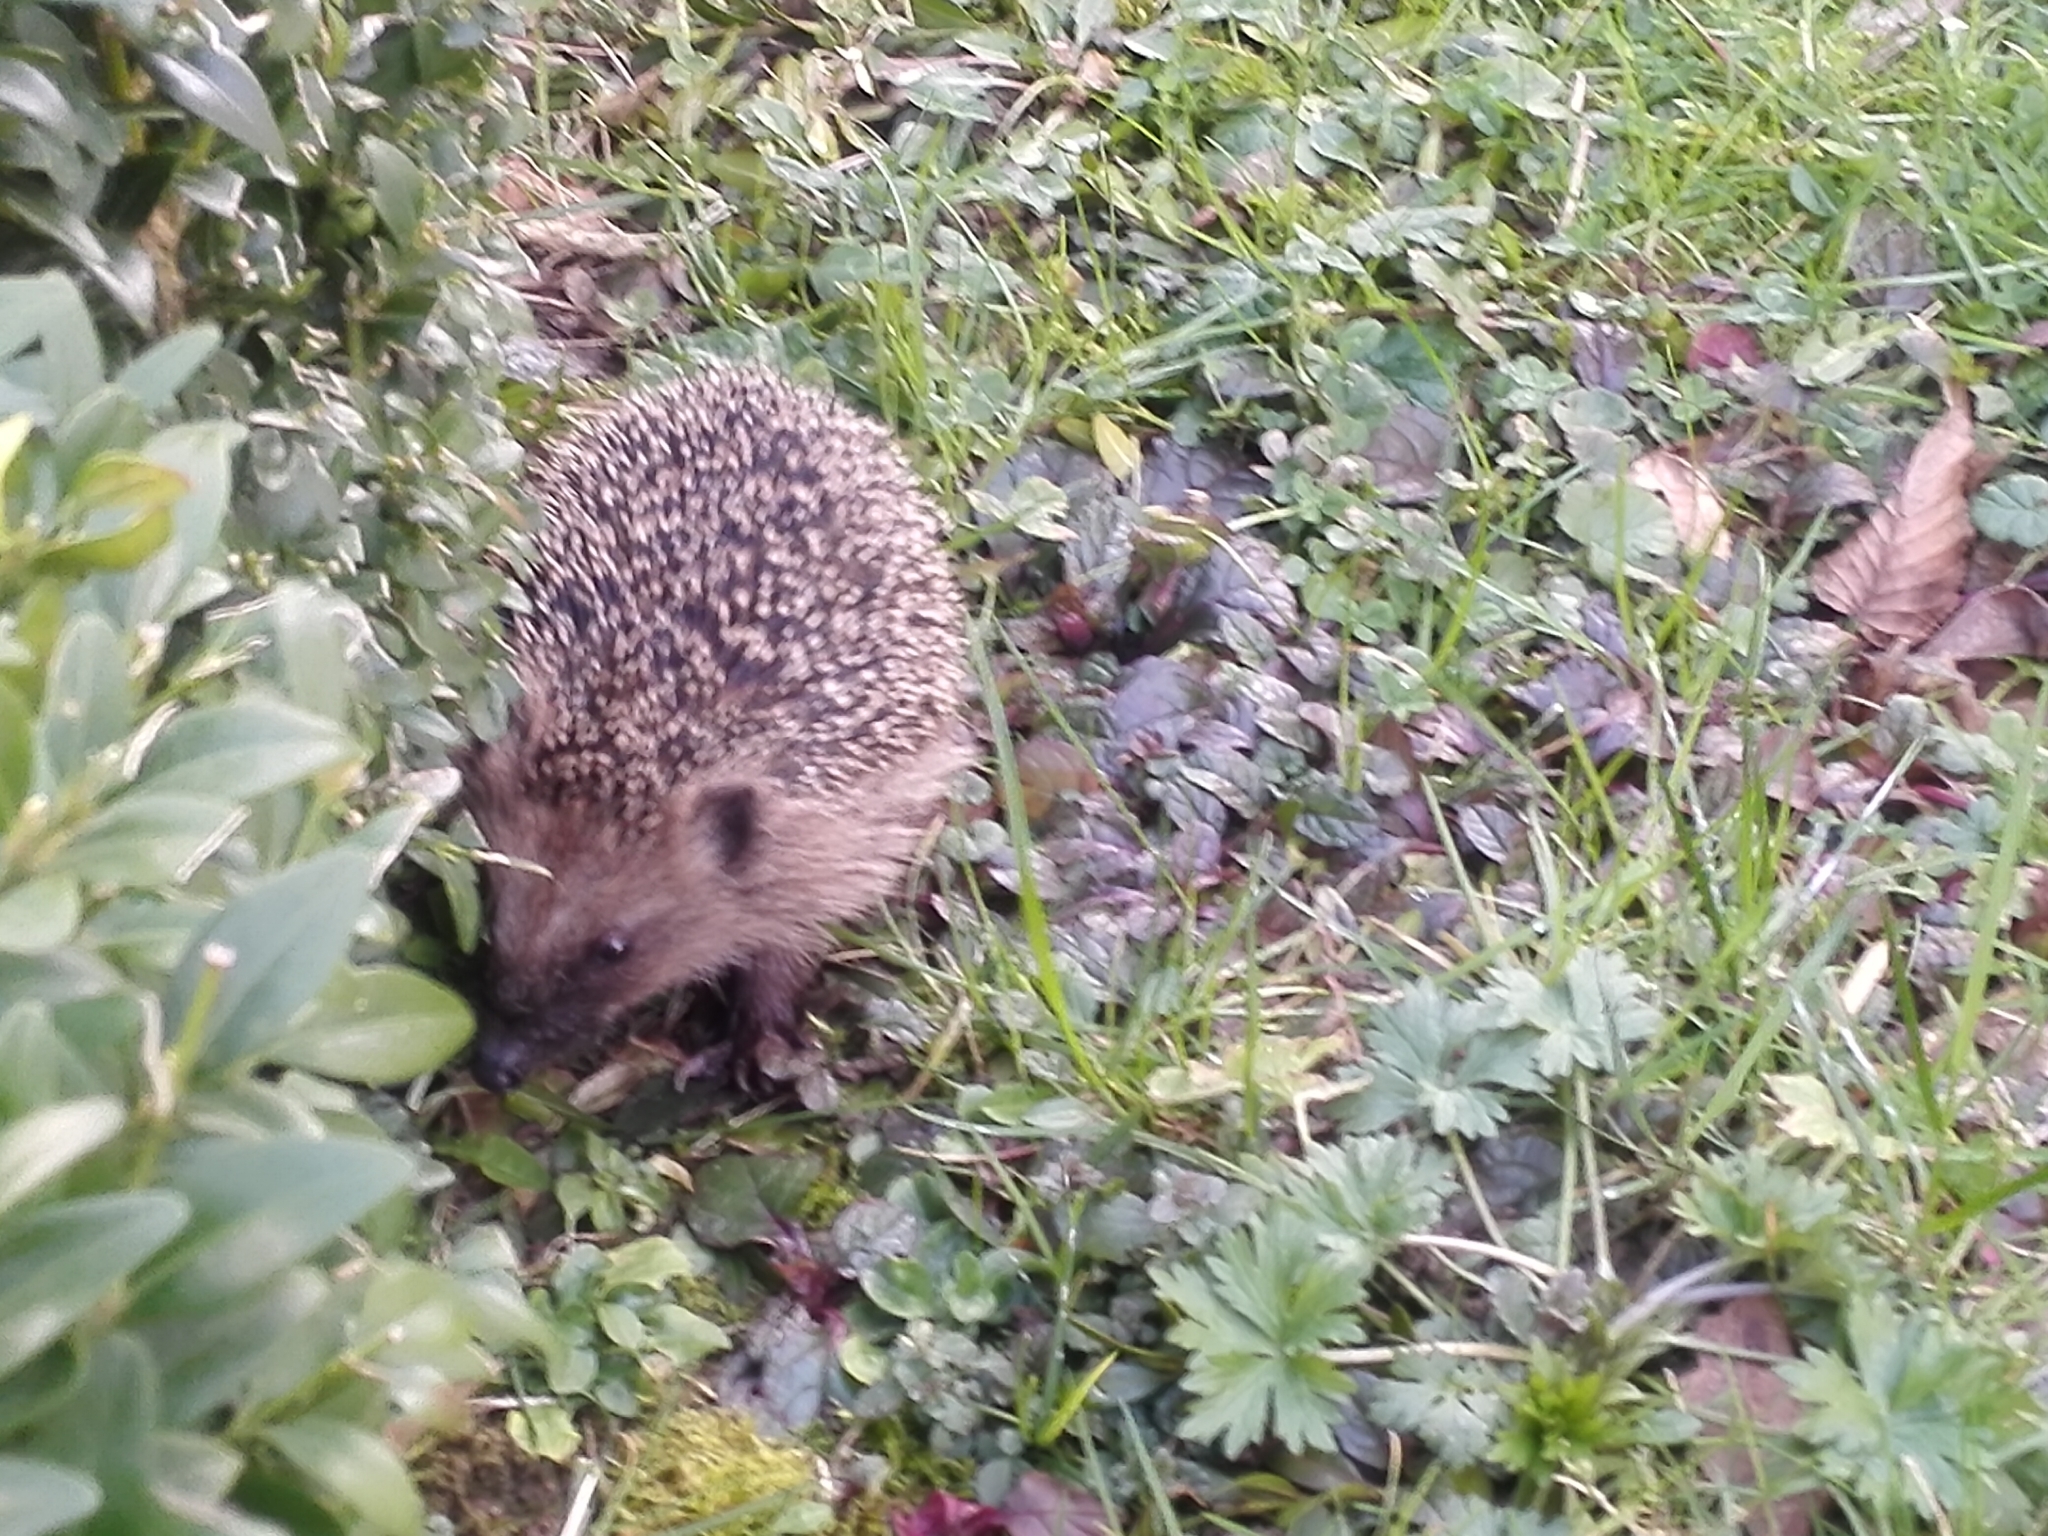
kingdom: Animalia
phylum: Chordata
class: Mammalia
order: Erinaceomorpha
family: Erinaceidae
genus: Erinaceus
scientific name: Erinaceus europaeus
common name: West european hedgehog
